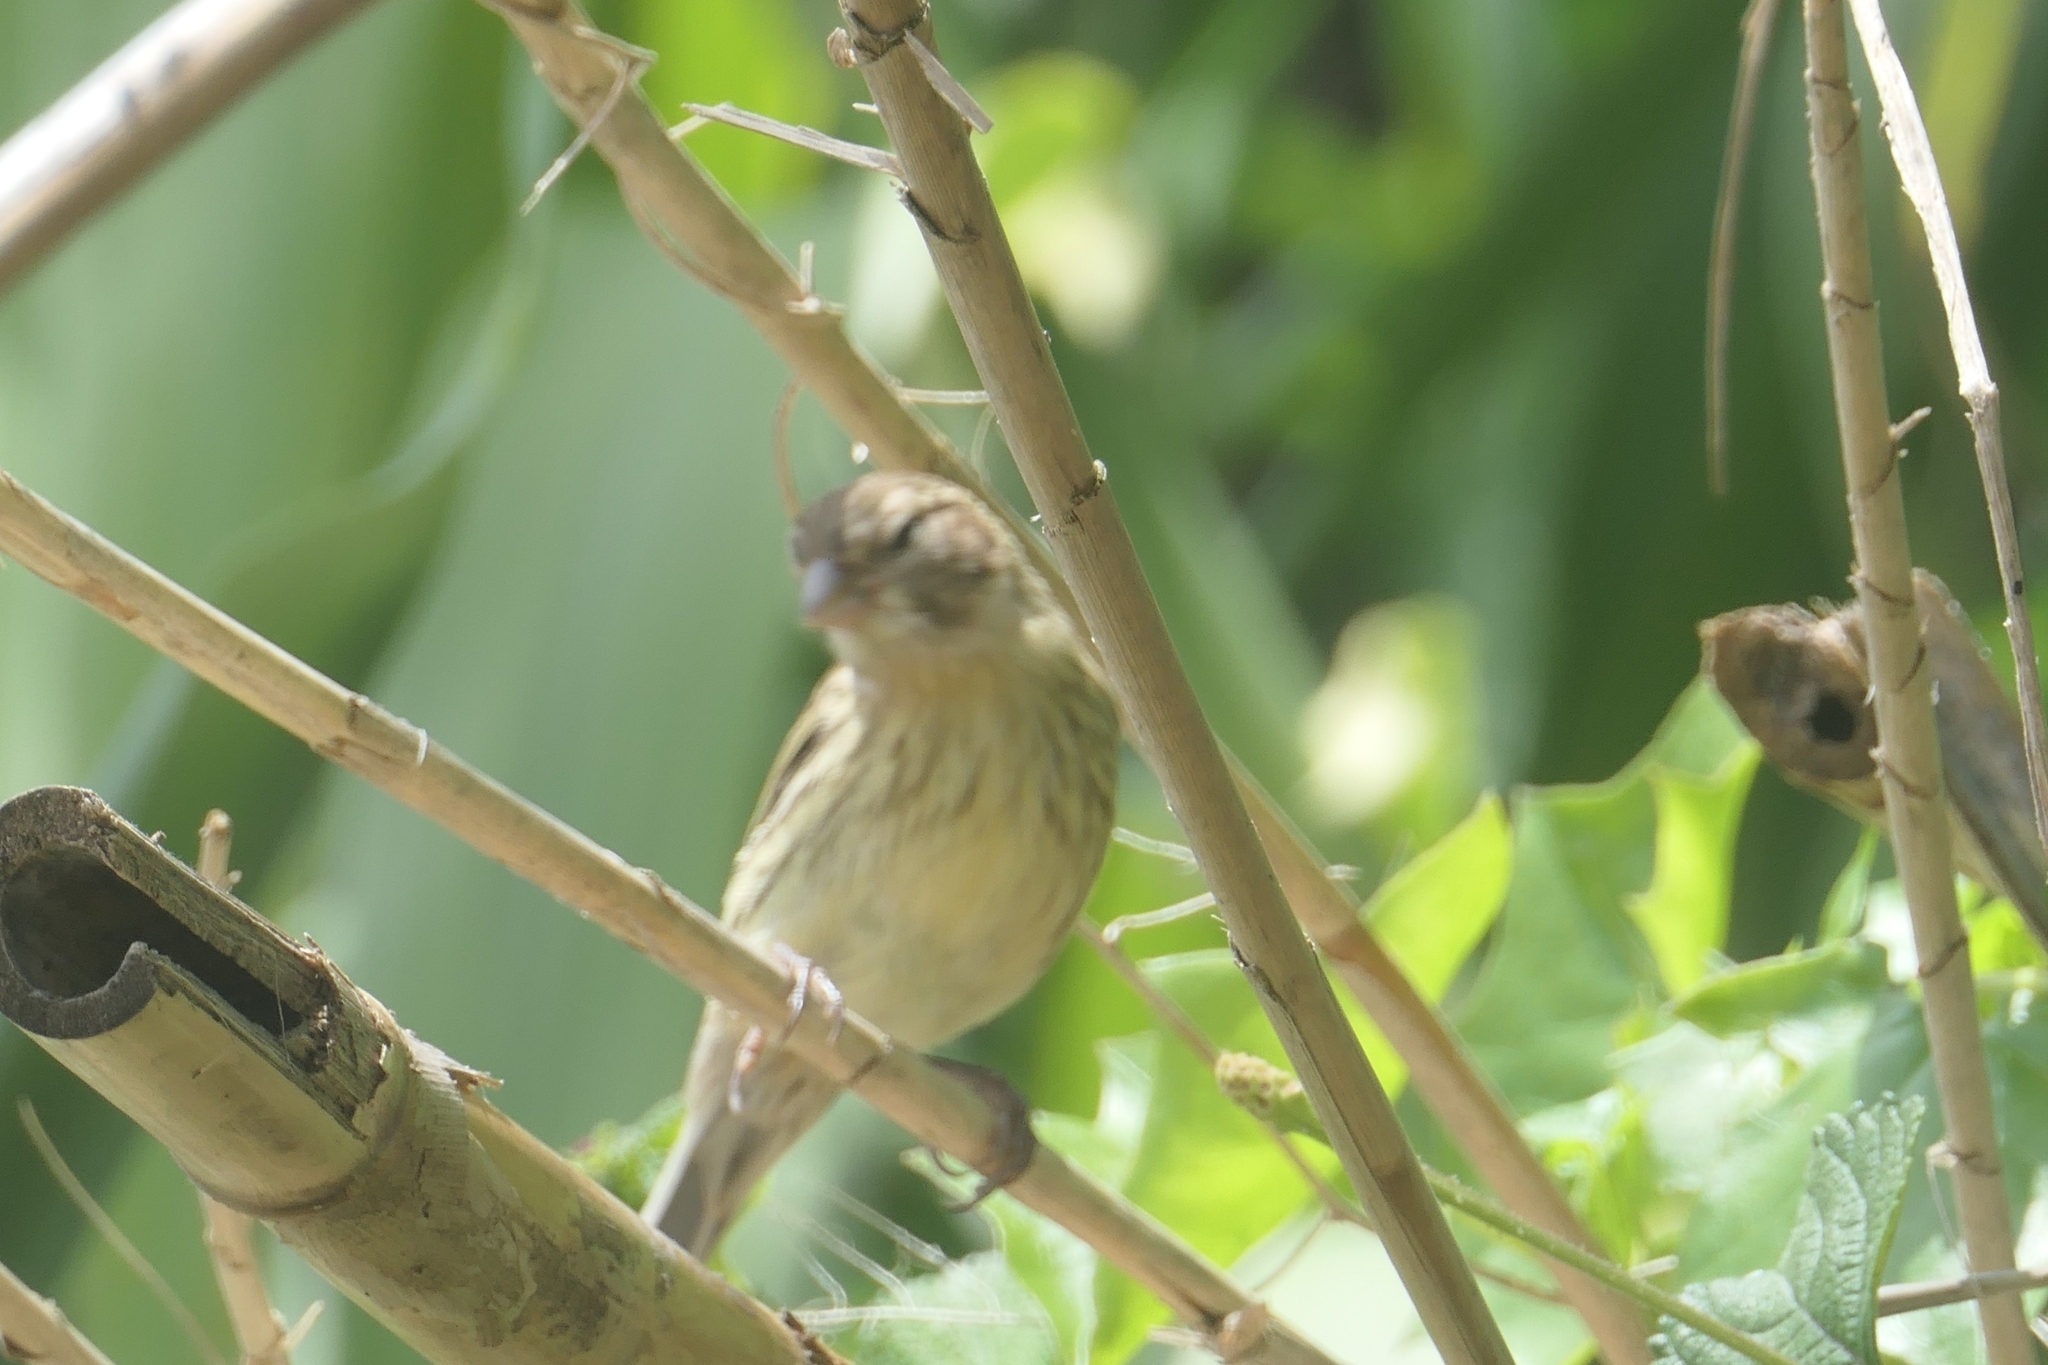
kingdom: Animalia
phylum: Chordata
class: Aves
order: Passeriformes
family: Fringillidae
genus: Serinus
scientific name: Serinus canaria
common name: Atlantic canary
